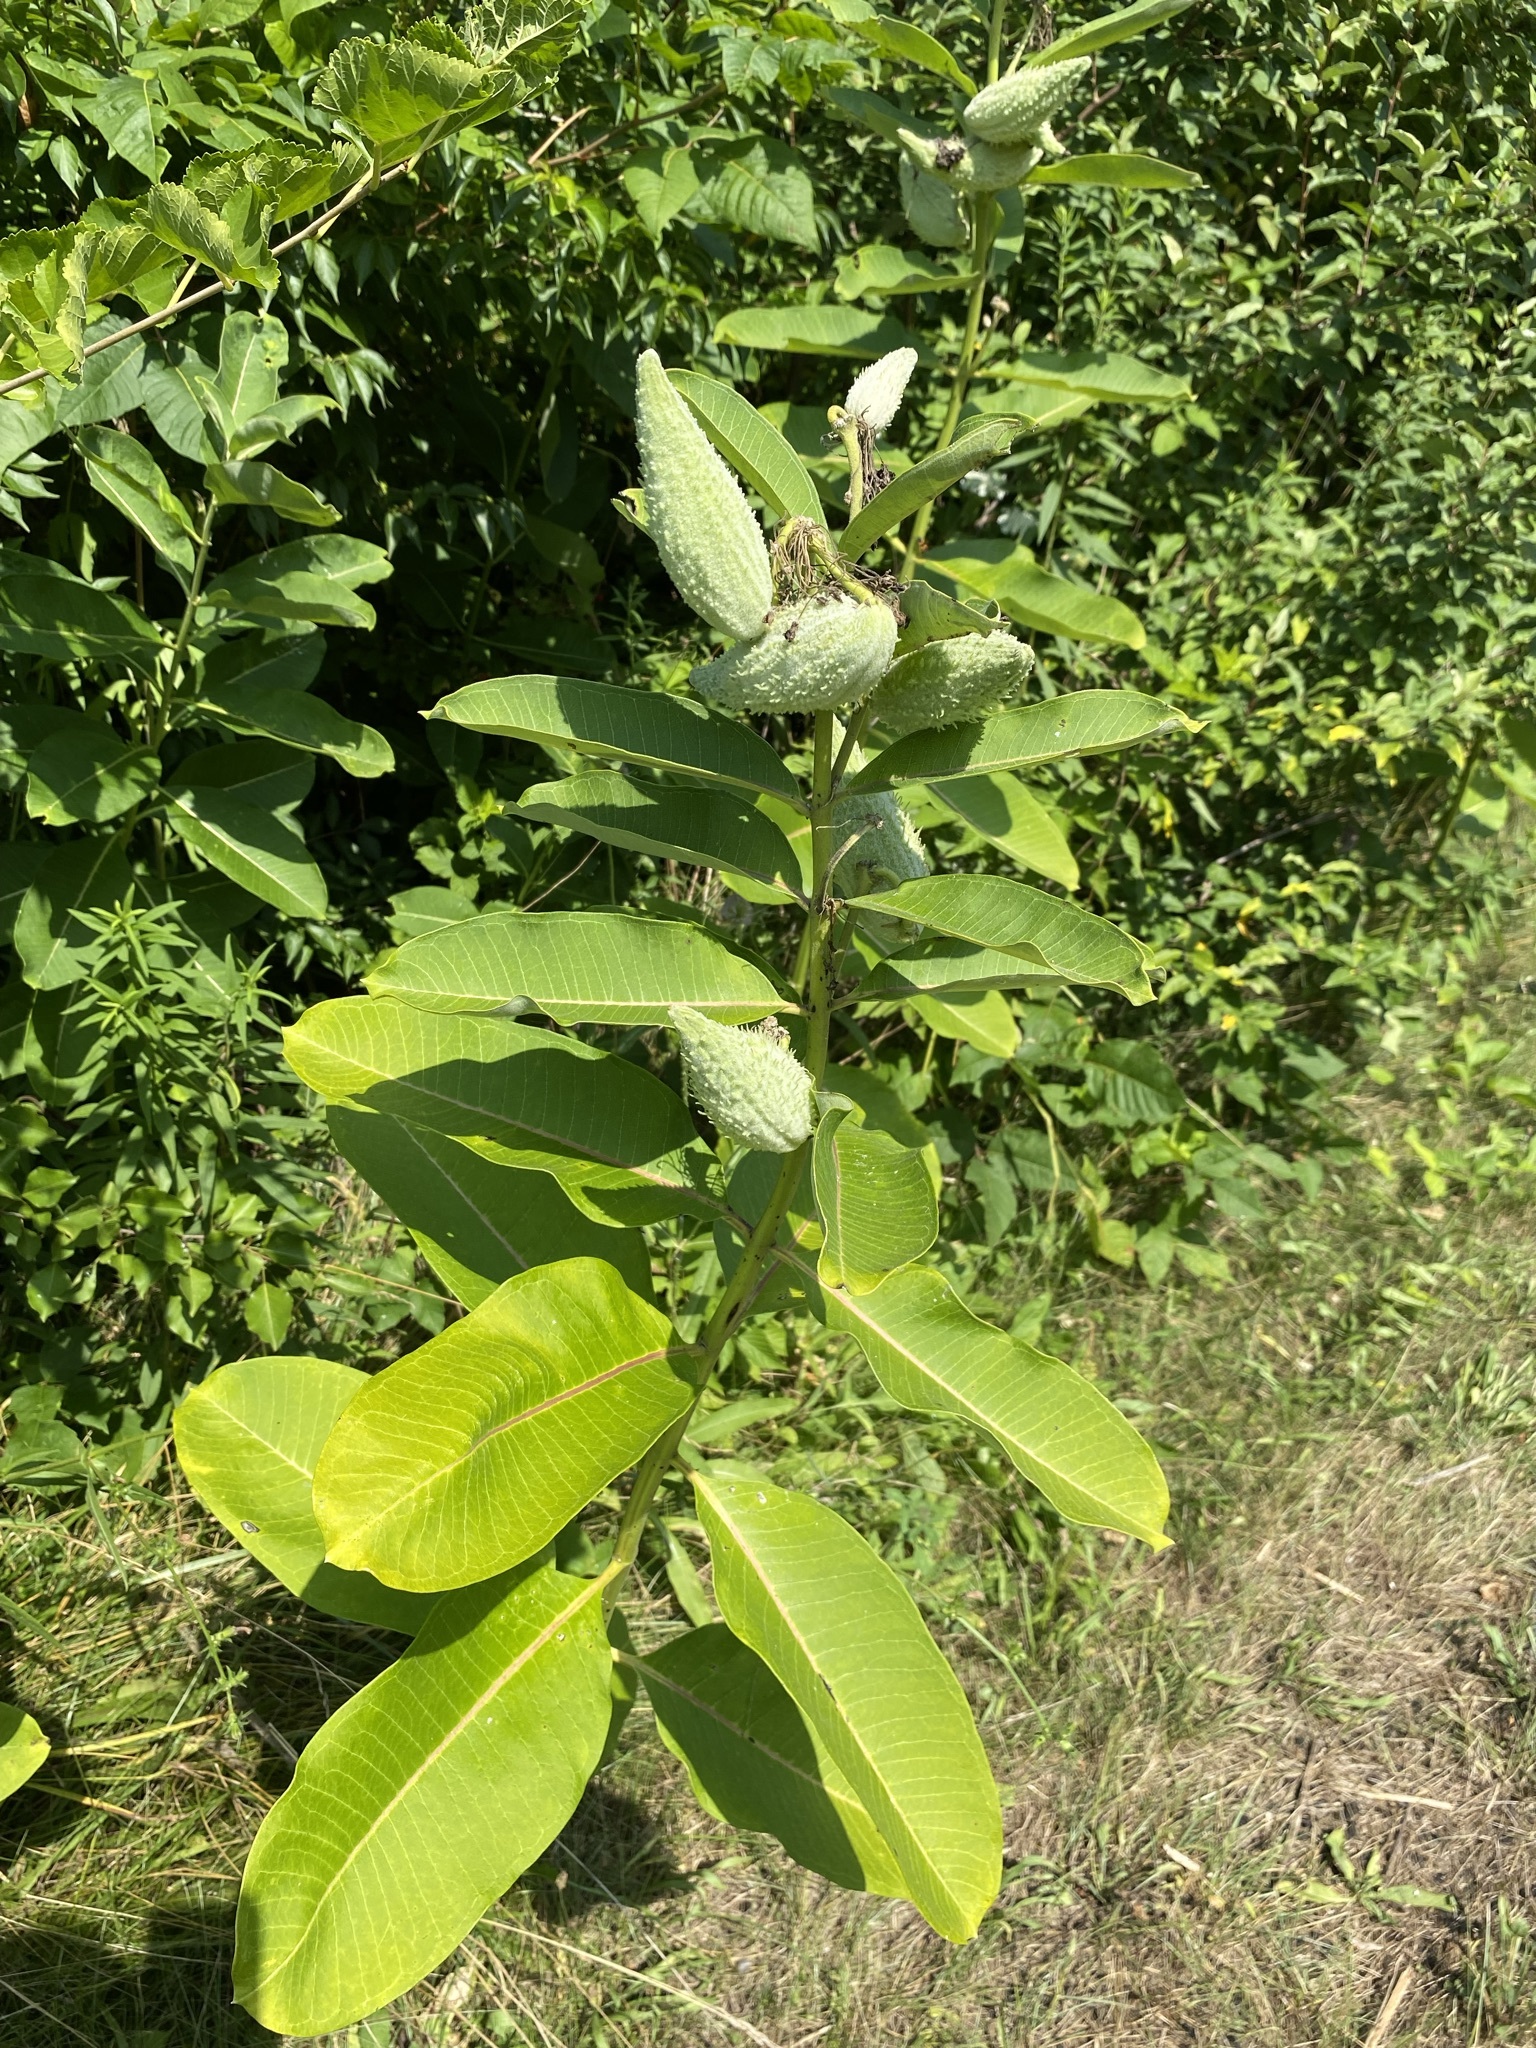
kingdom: Plantae
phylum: Tracheophyta
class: Magnoliopsida
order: Gentianales
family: Apocynaceae
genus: Asclepias
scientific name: Asclepias syriaca
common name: Common milkweed
